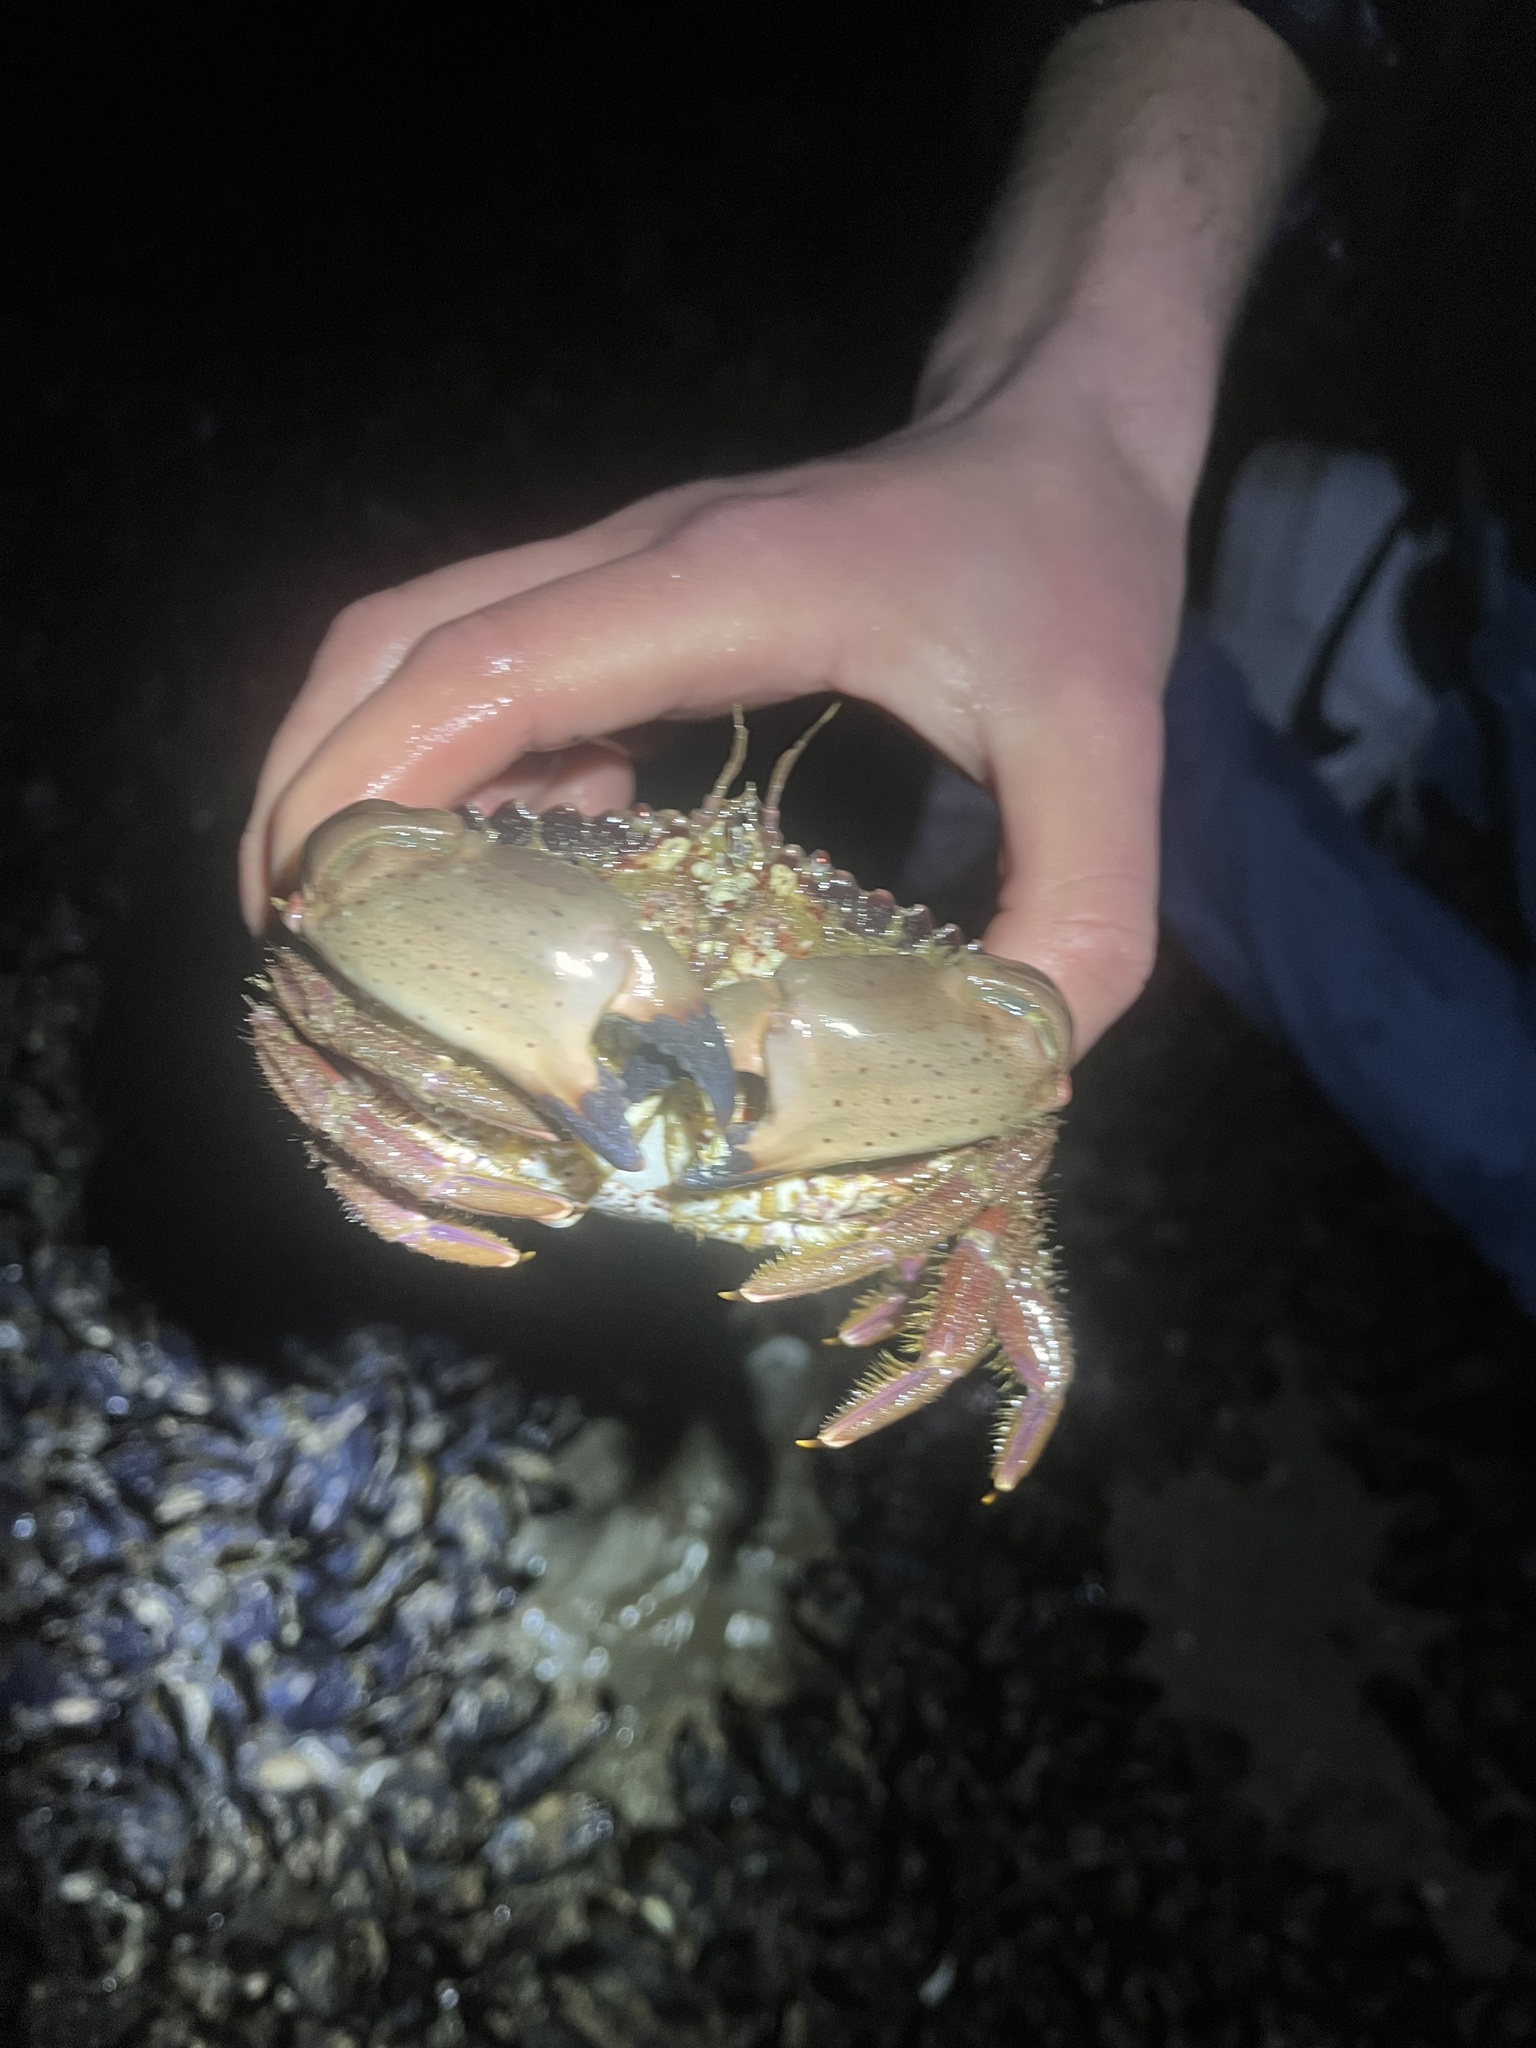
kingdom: Animalia
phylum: Arthropoda
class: Malacostraca
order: Decapoda
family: Cancridae
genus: Romaleon
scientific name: Romaleon antennarium
